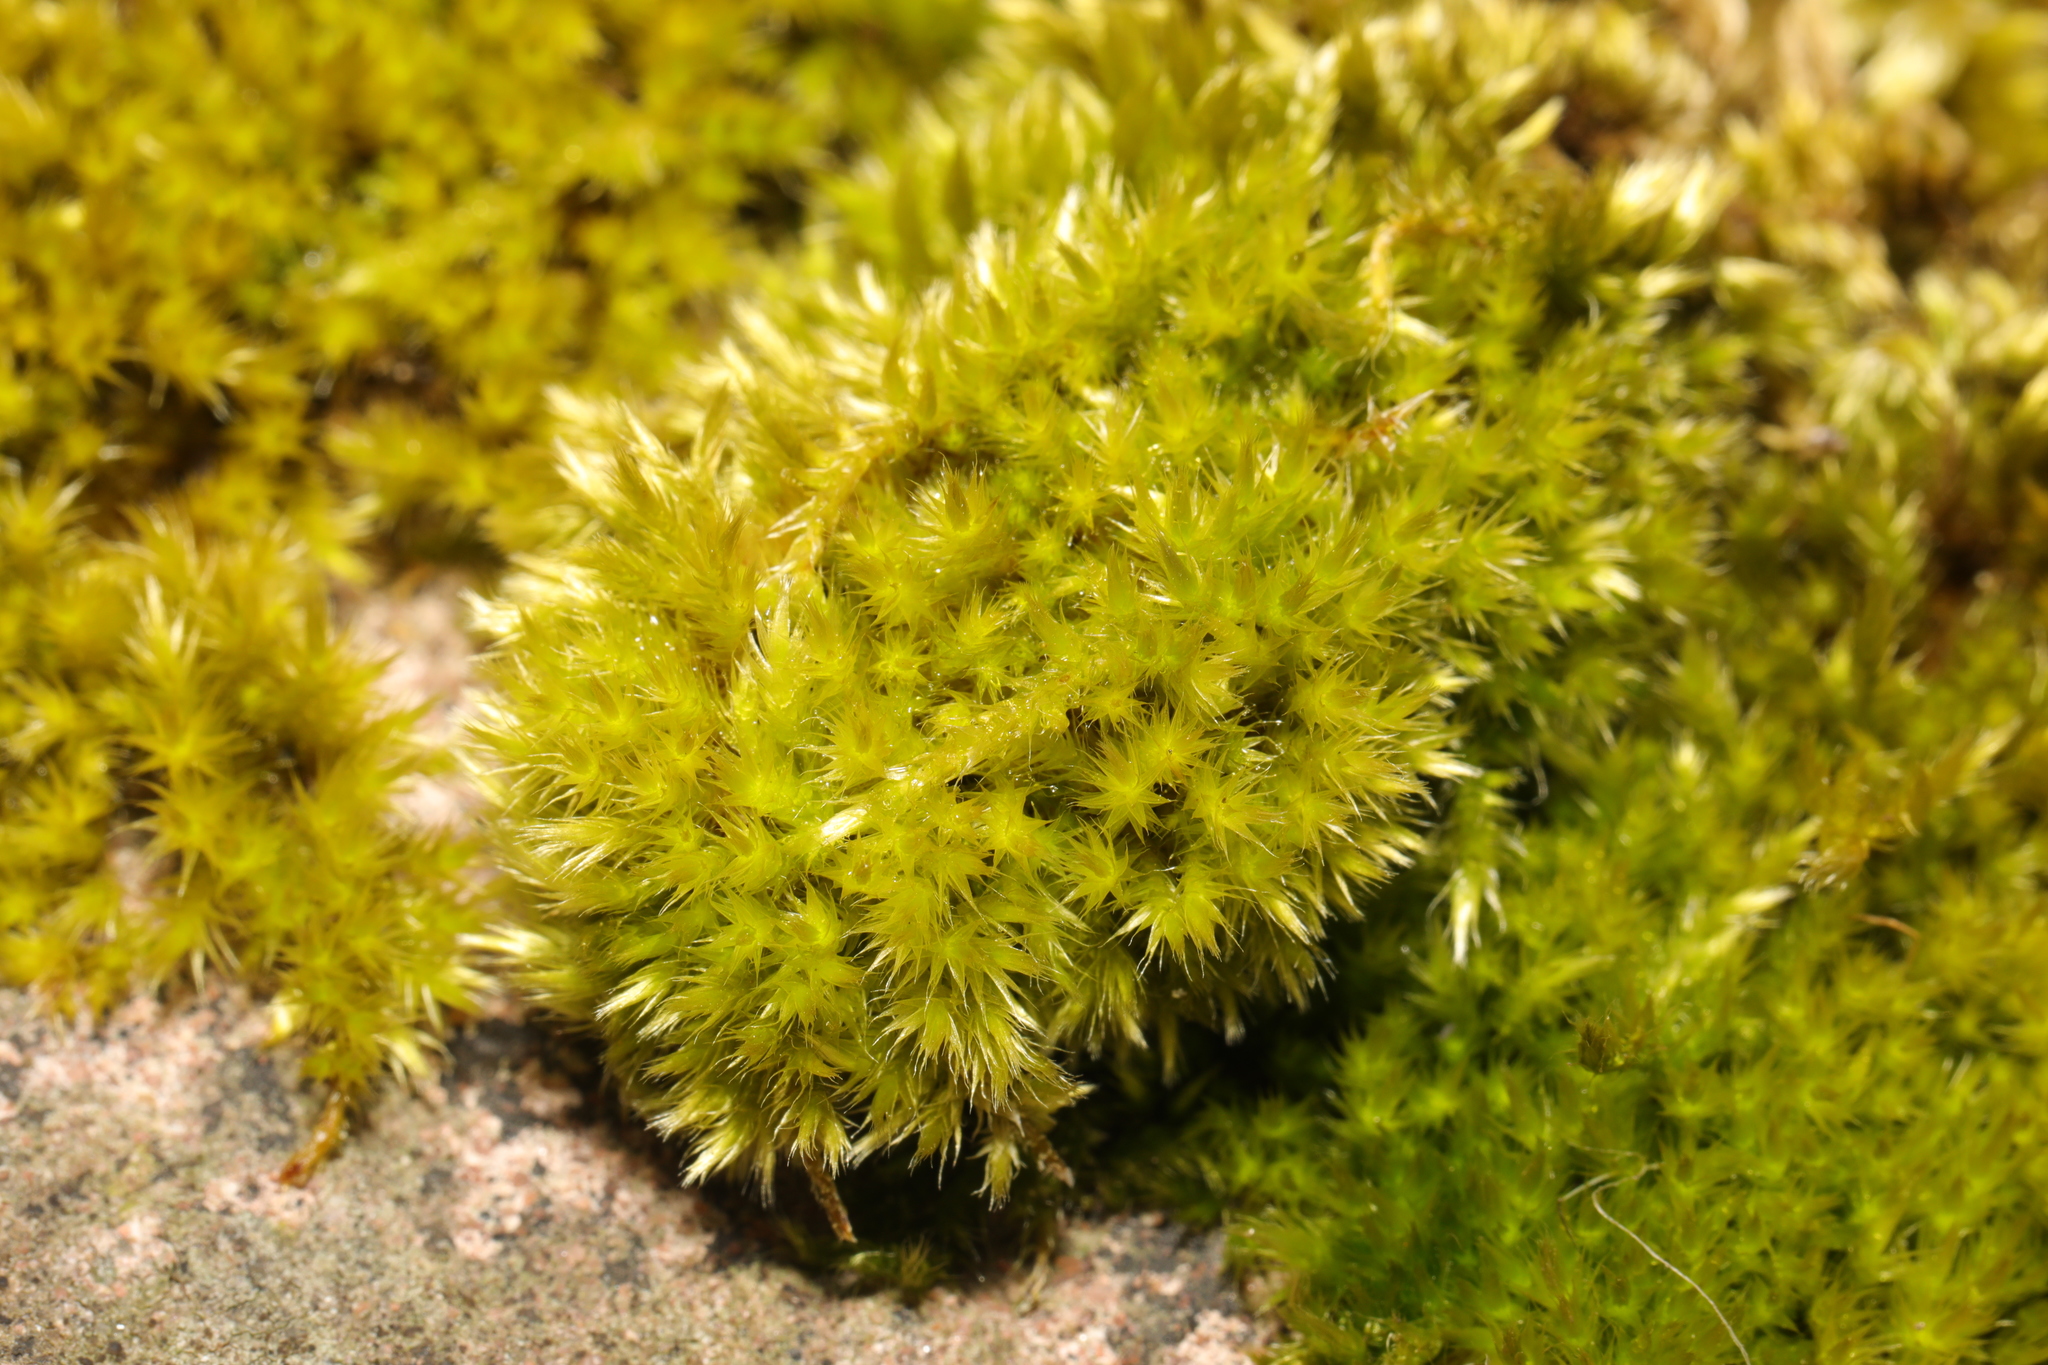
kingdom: Plantae
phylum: Bryophyta
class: Bryopsida
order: Hypnales
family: Brachytheciaceae
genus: Homalothecium
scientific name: Homalothecium sericeum
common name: Silky wall feather-moss
